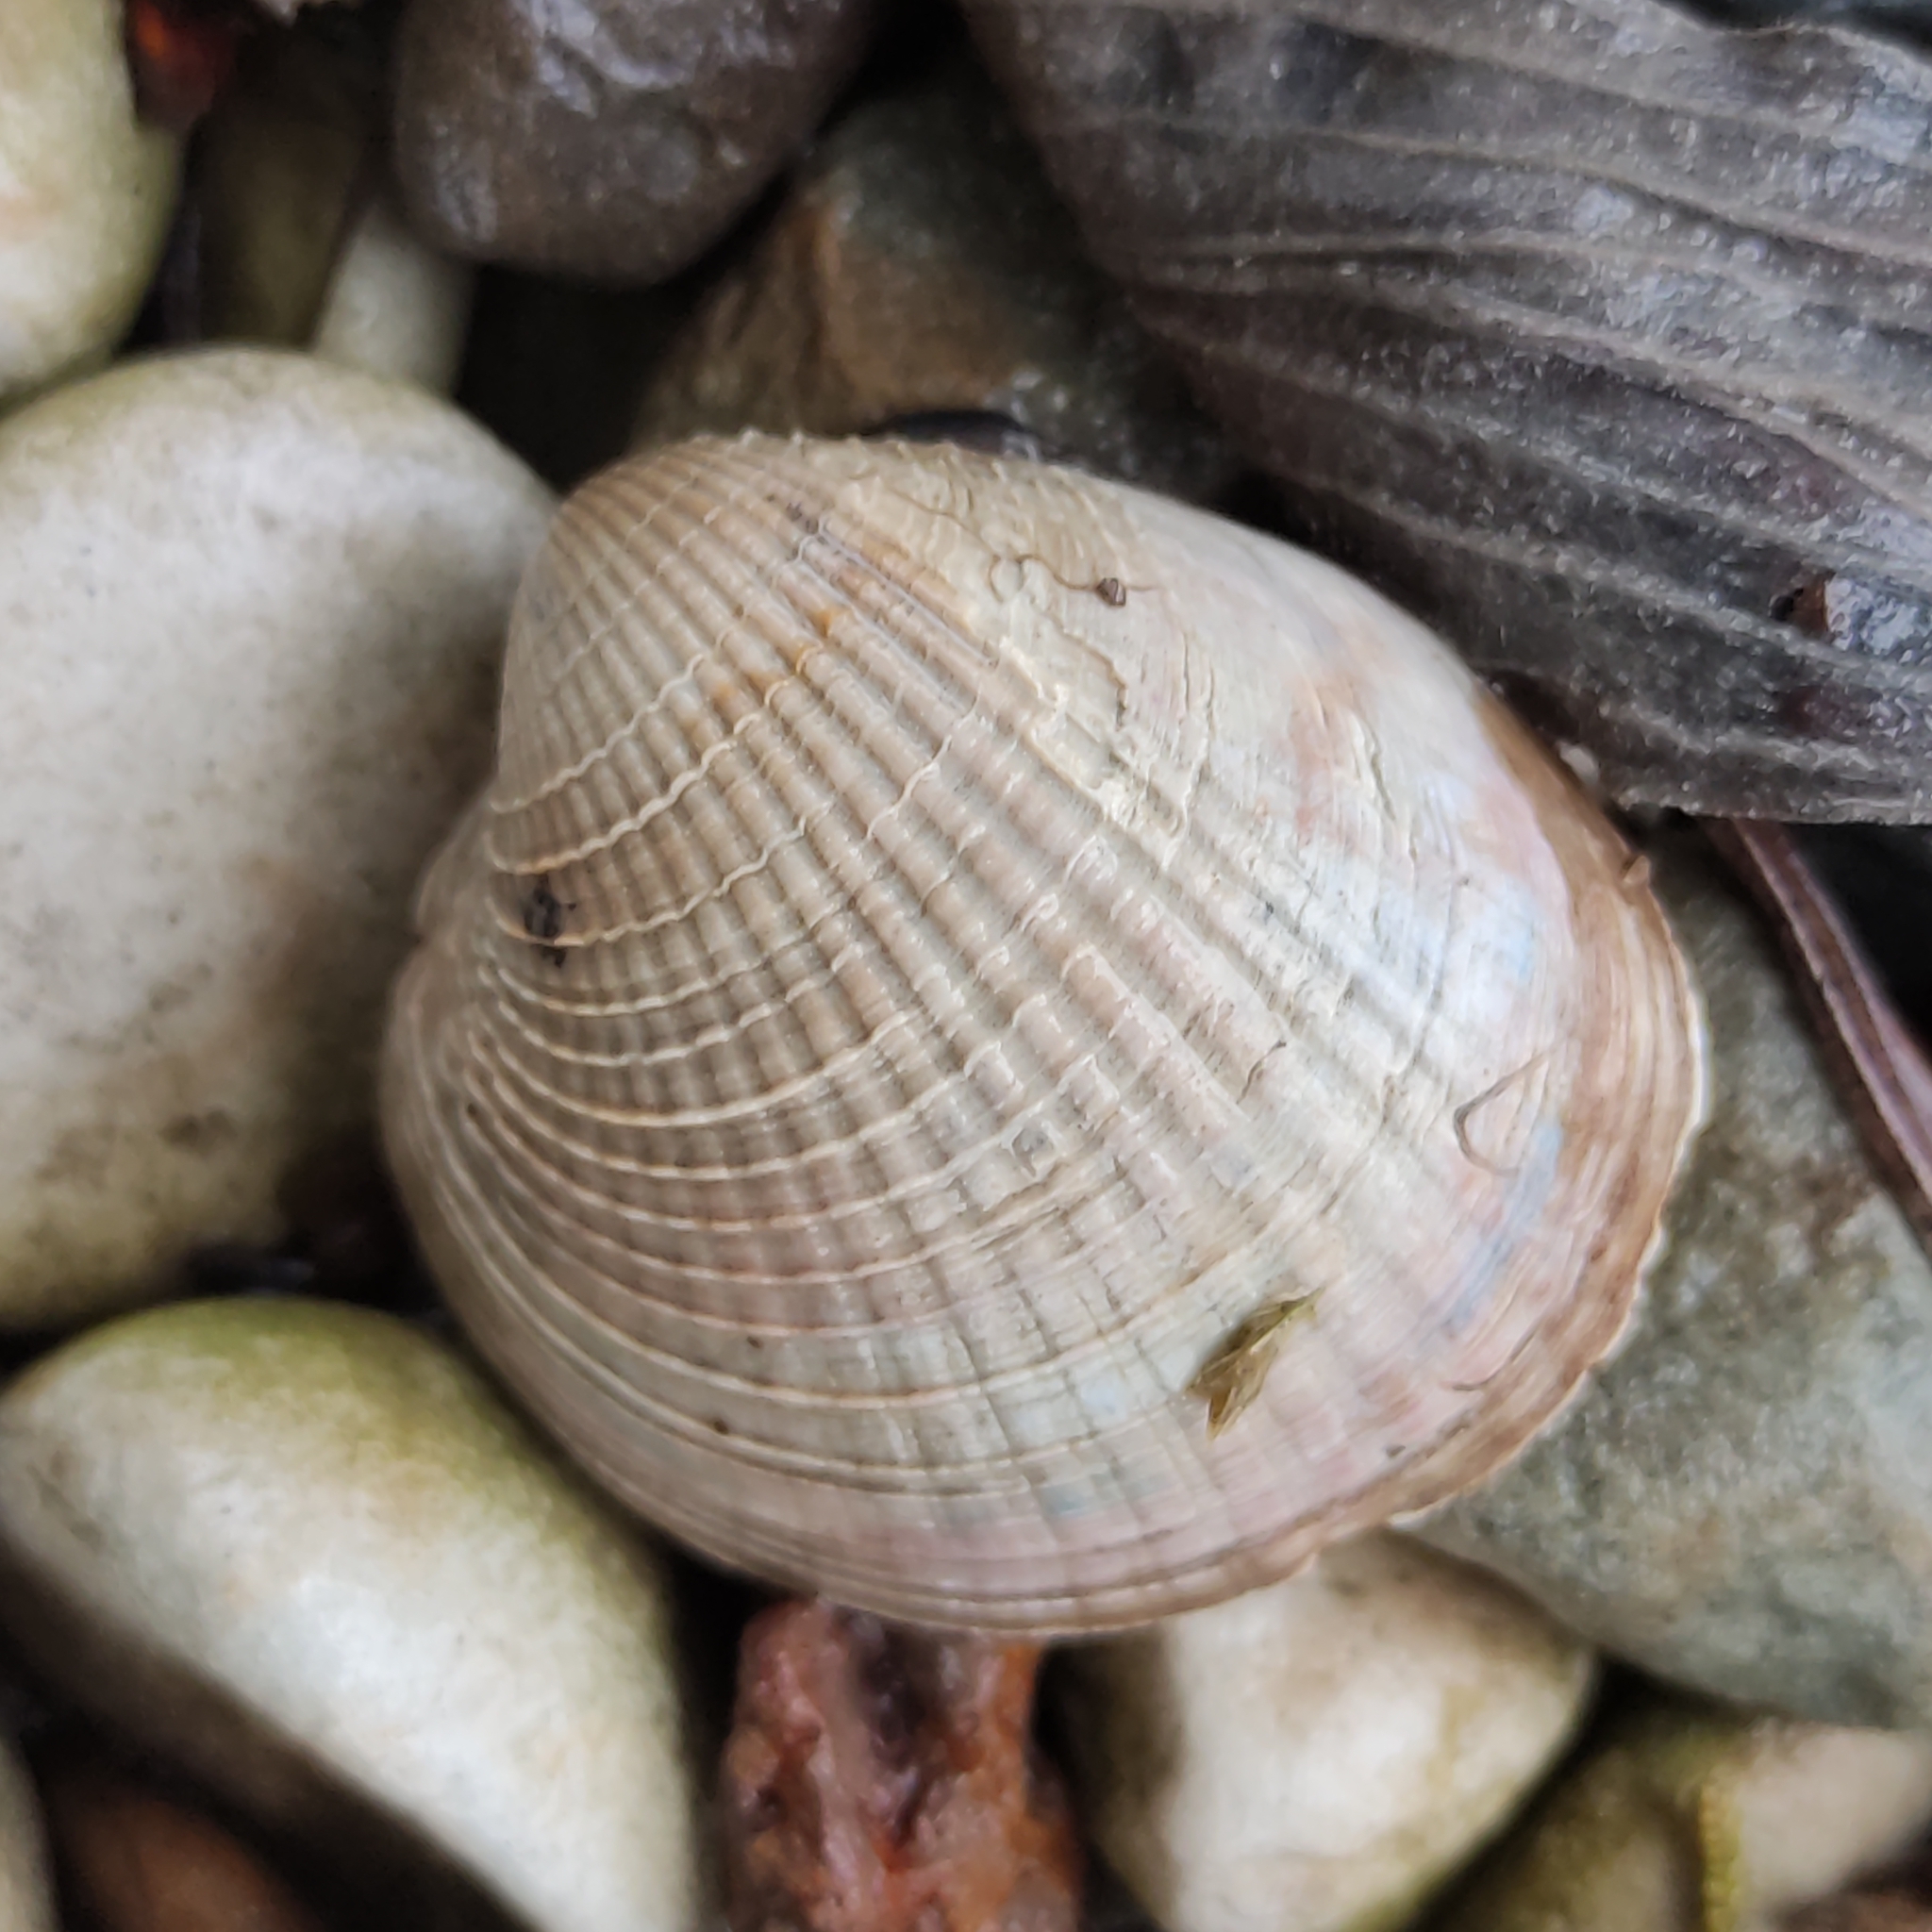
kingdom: Animalia
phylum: Mollusca
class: Bivalvia
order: Venerida
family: Veneridae
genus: Austrovenus
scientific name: Austrovenus stutchburyi
